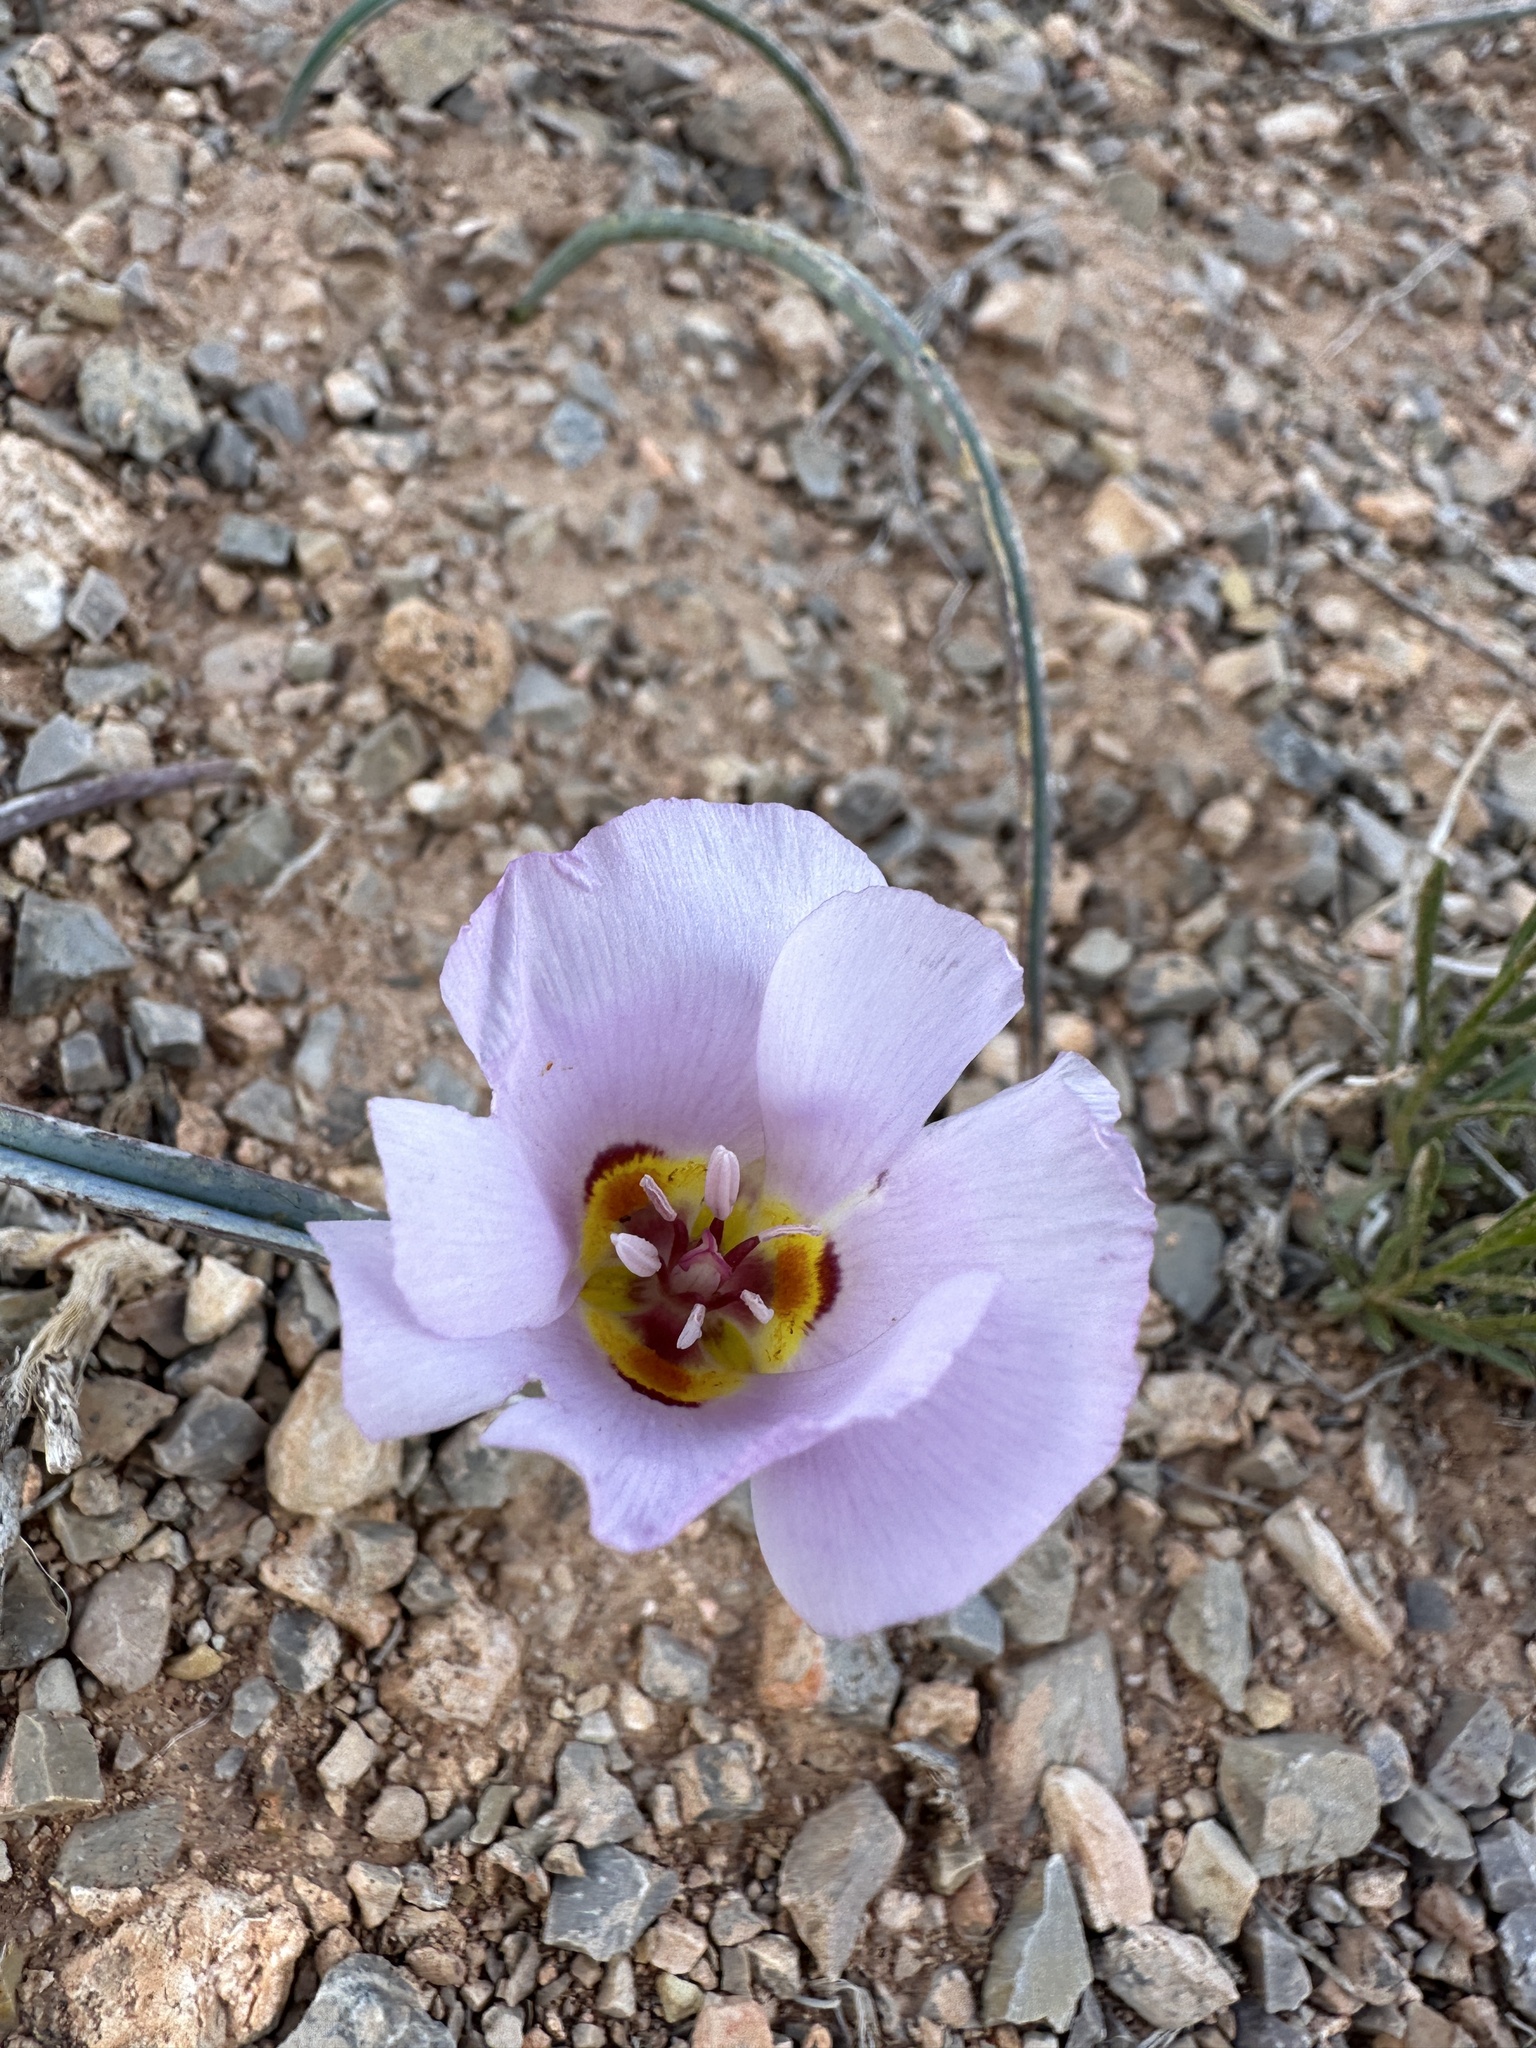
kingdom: Plantae
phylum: Tracheophyta
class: Liliopsida
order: Liliales
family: Liliaceae
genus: Calochortus
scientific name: Calochortus flexuosus
